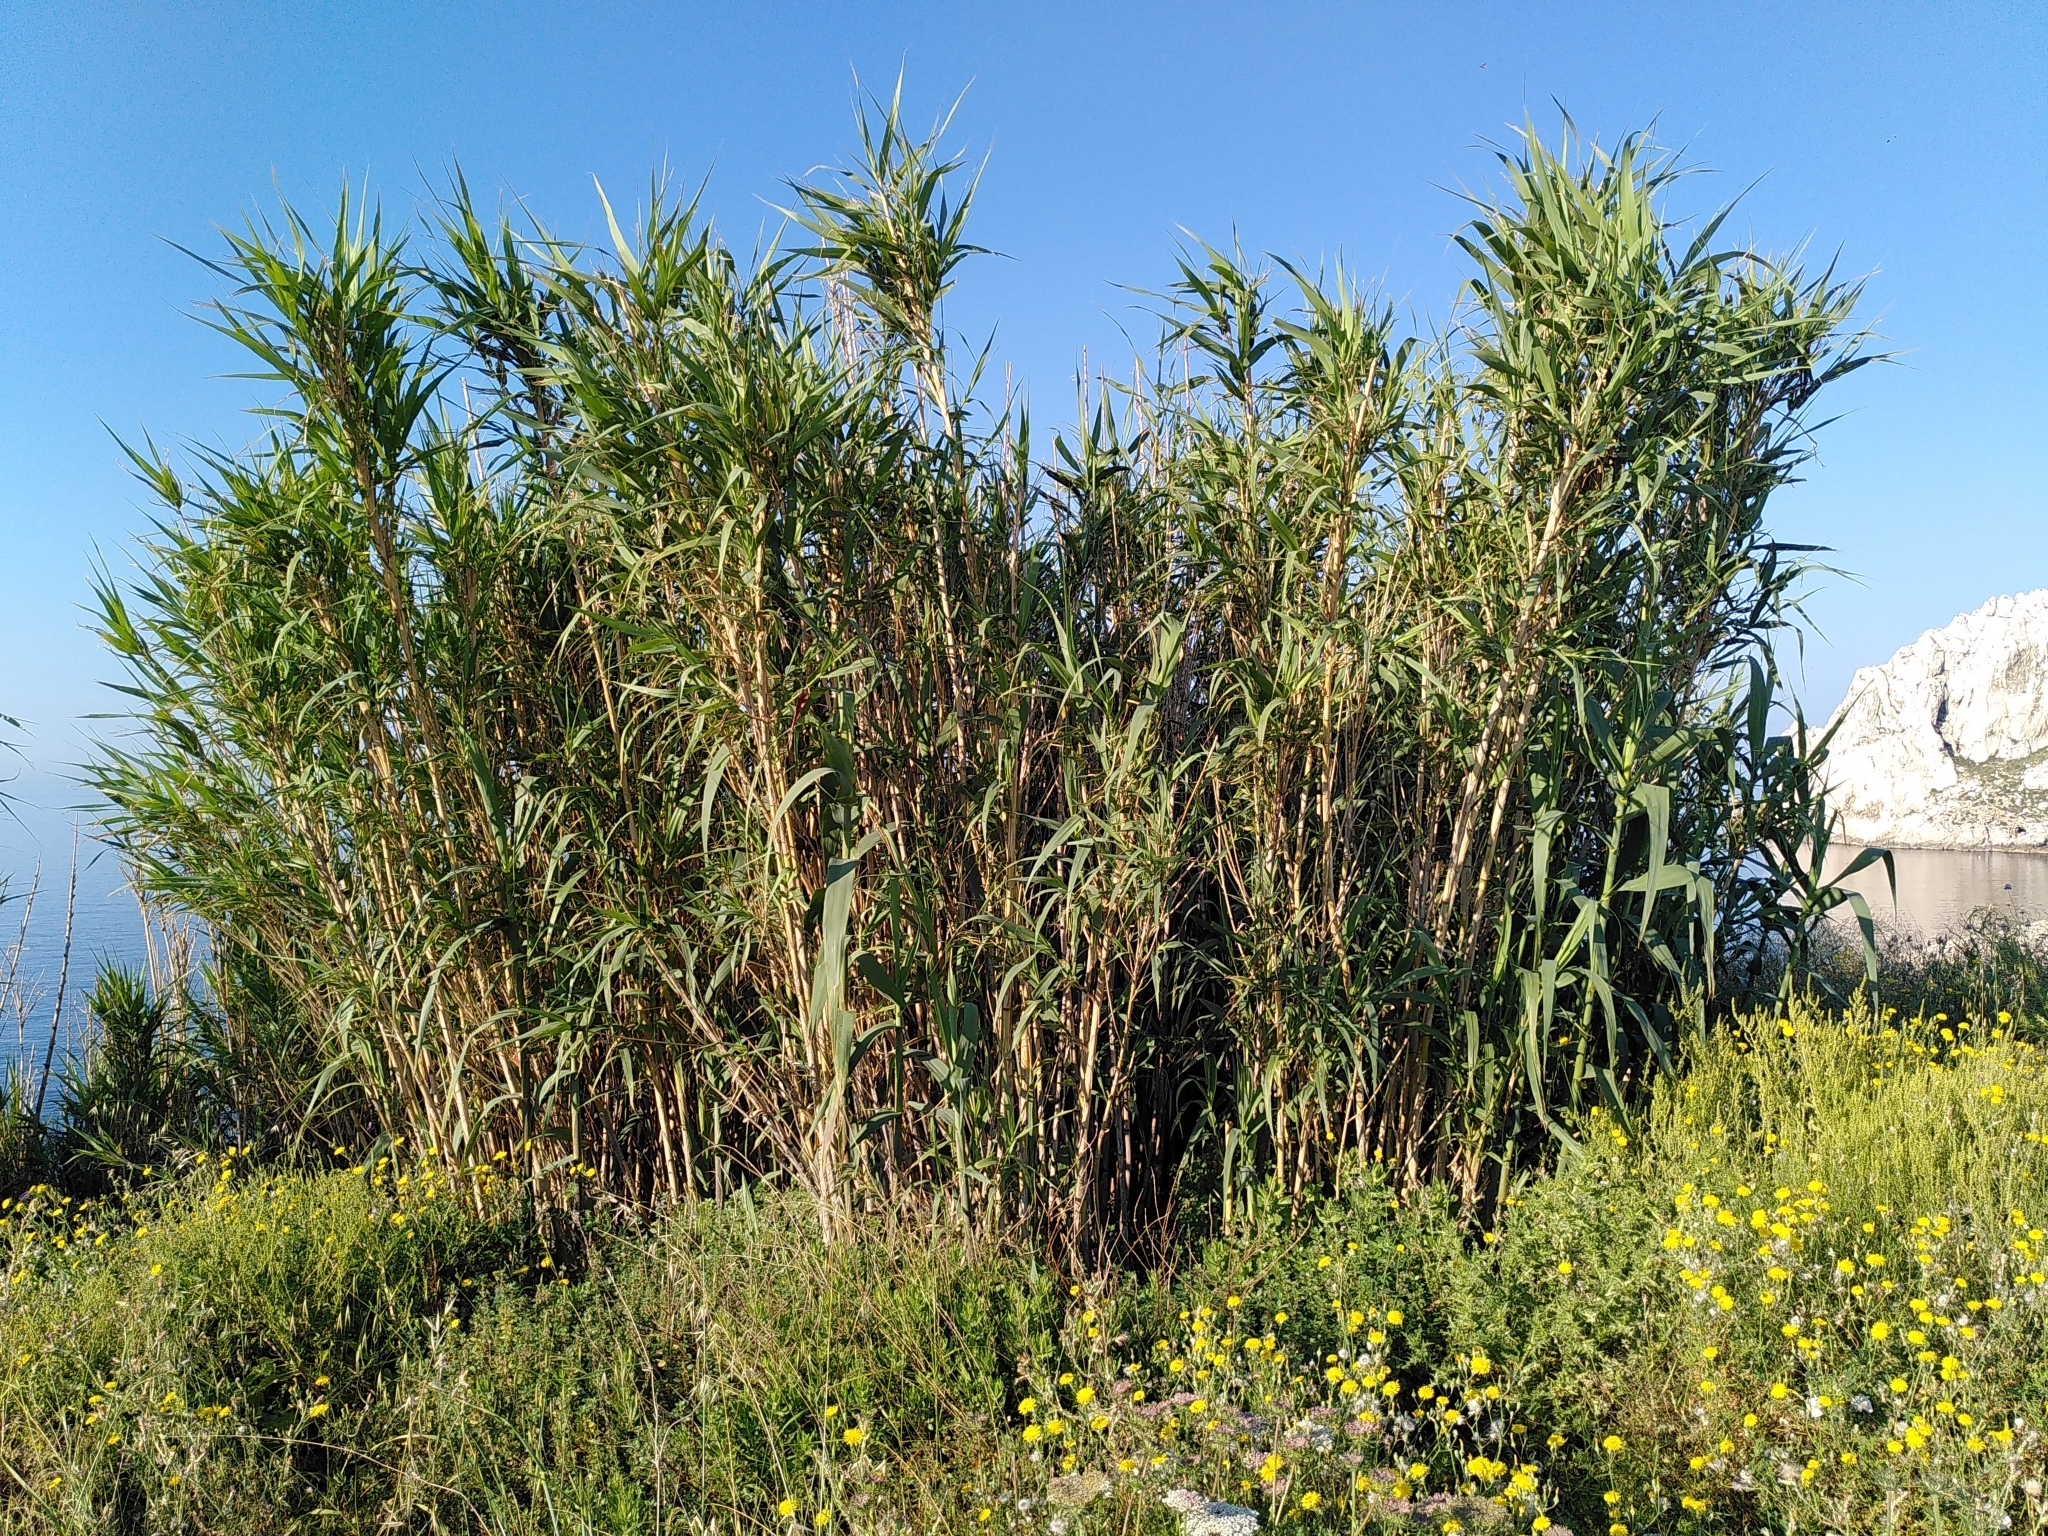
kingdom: Plantae
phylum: Tracheophyta
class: Liliopsida
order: Poales
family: Poaceae
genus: Arundo
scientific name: Arundo donax
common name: Giant reed
